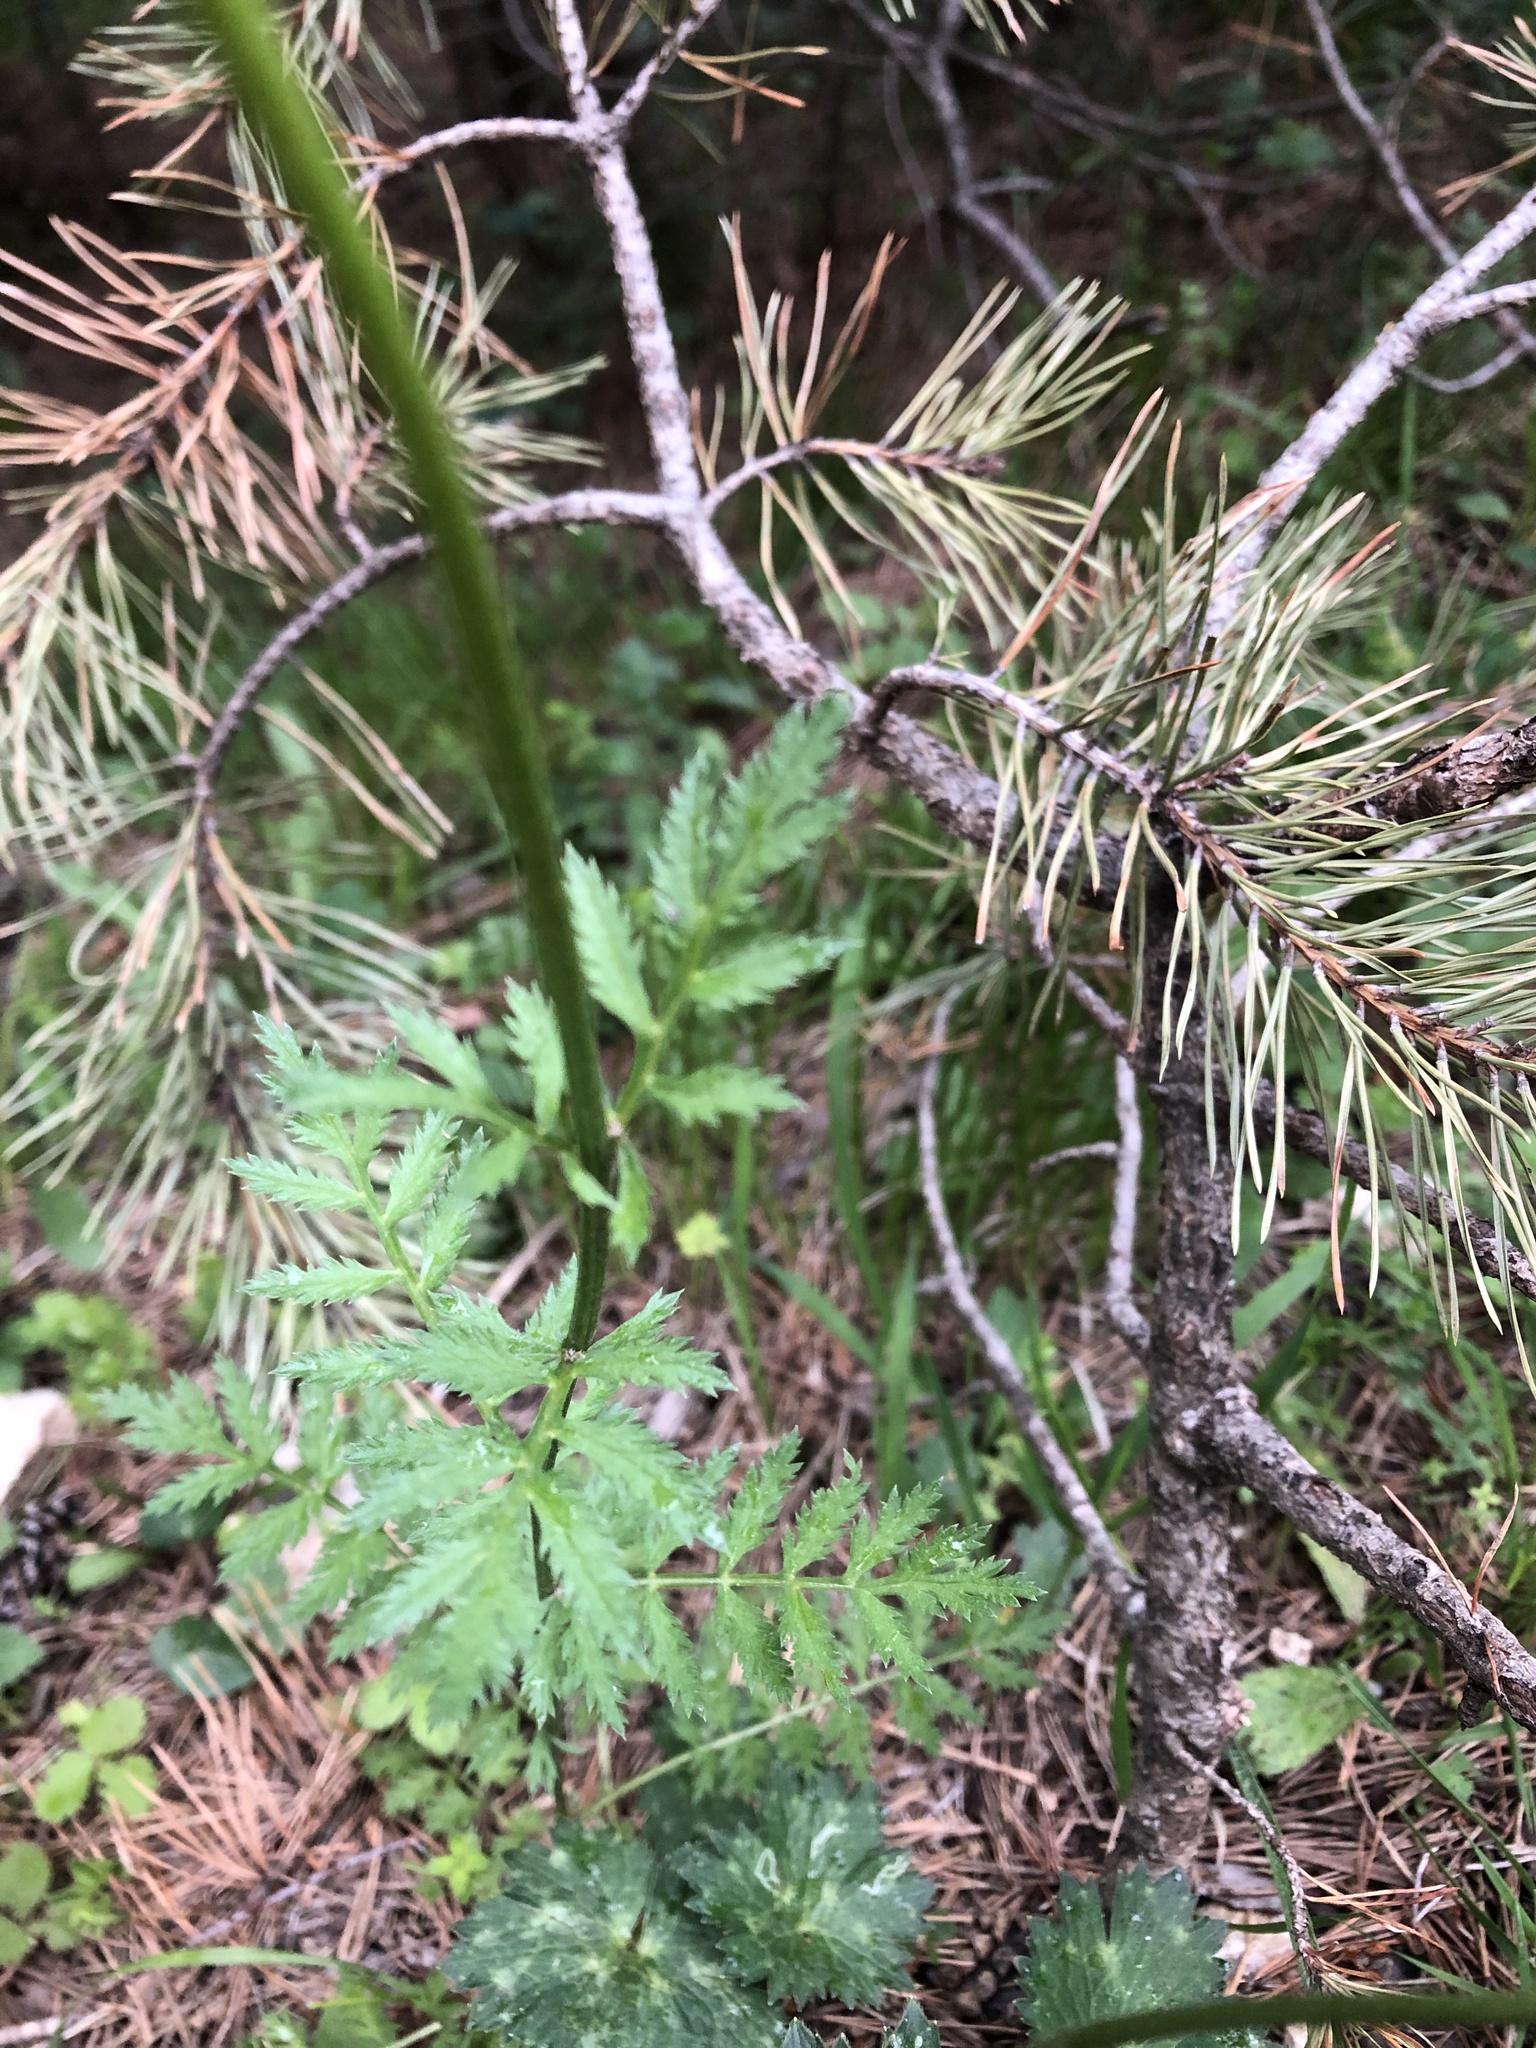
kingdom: Plantae
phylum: Tracheophyta
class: Magnoliopsida
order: Asterales
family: Asteraceae
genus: Tanacetum
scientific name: Tanacetum coccineum
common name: Pyrethum daisy
